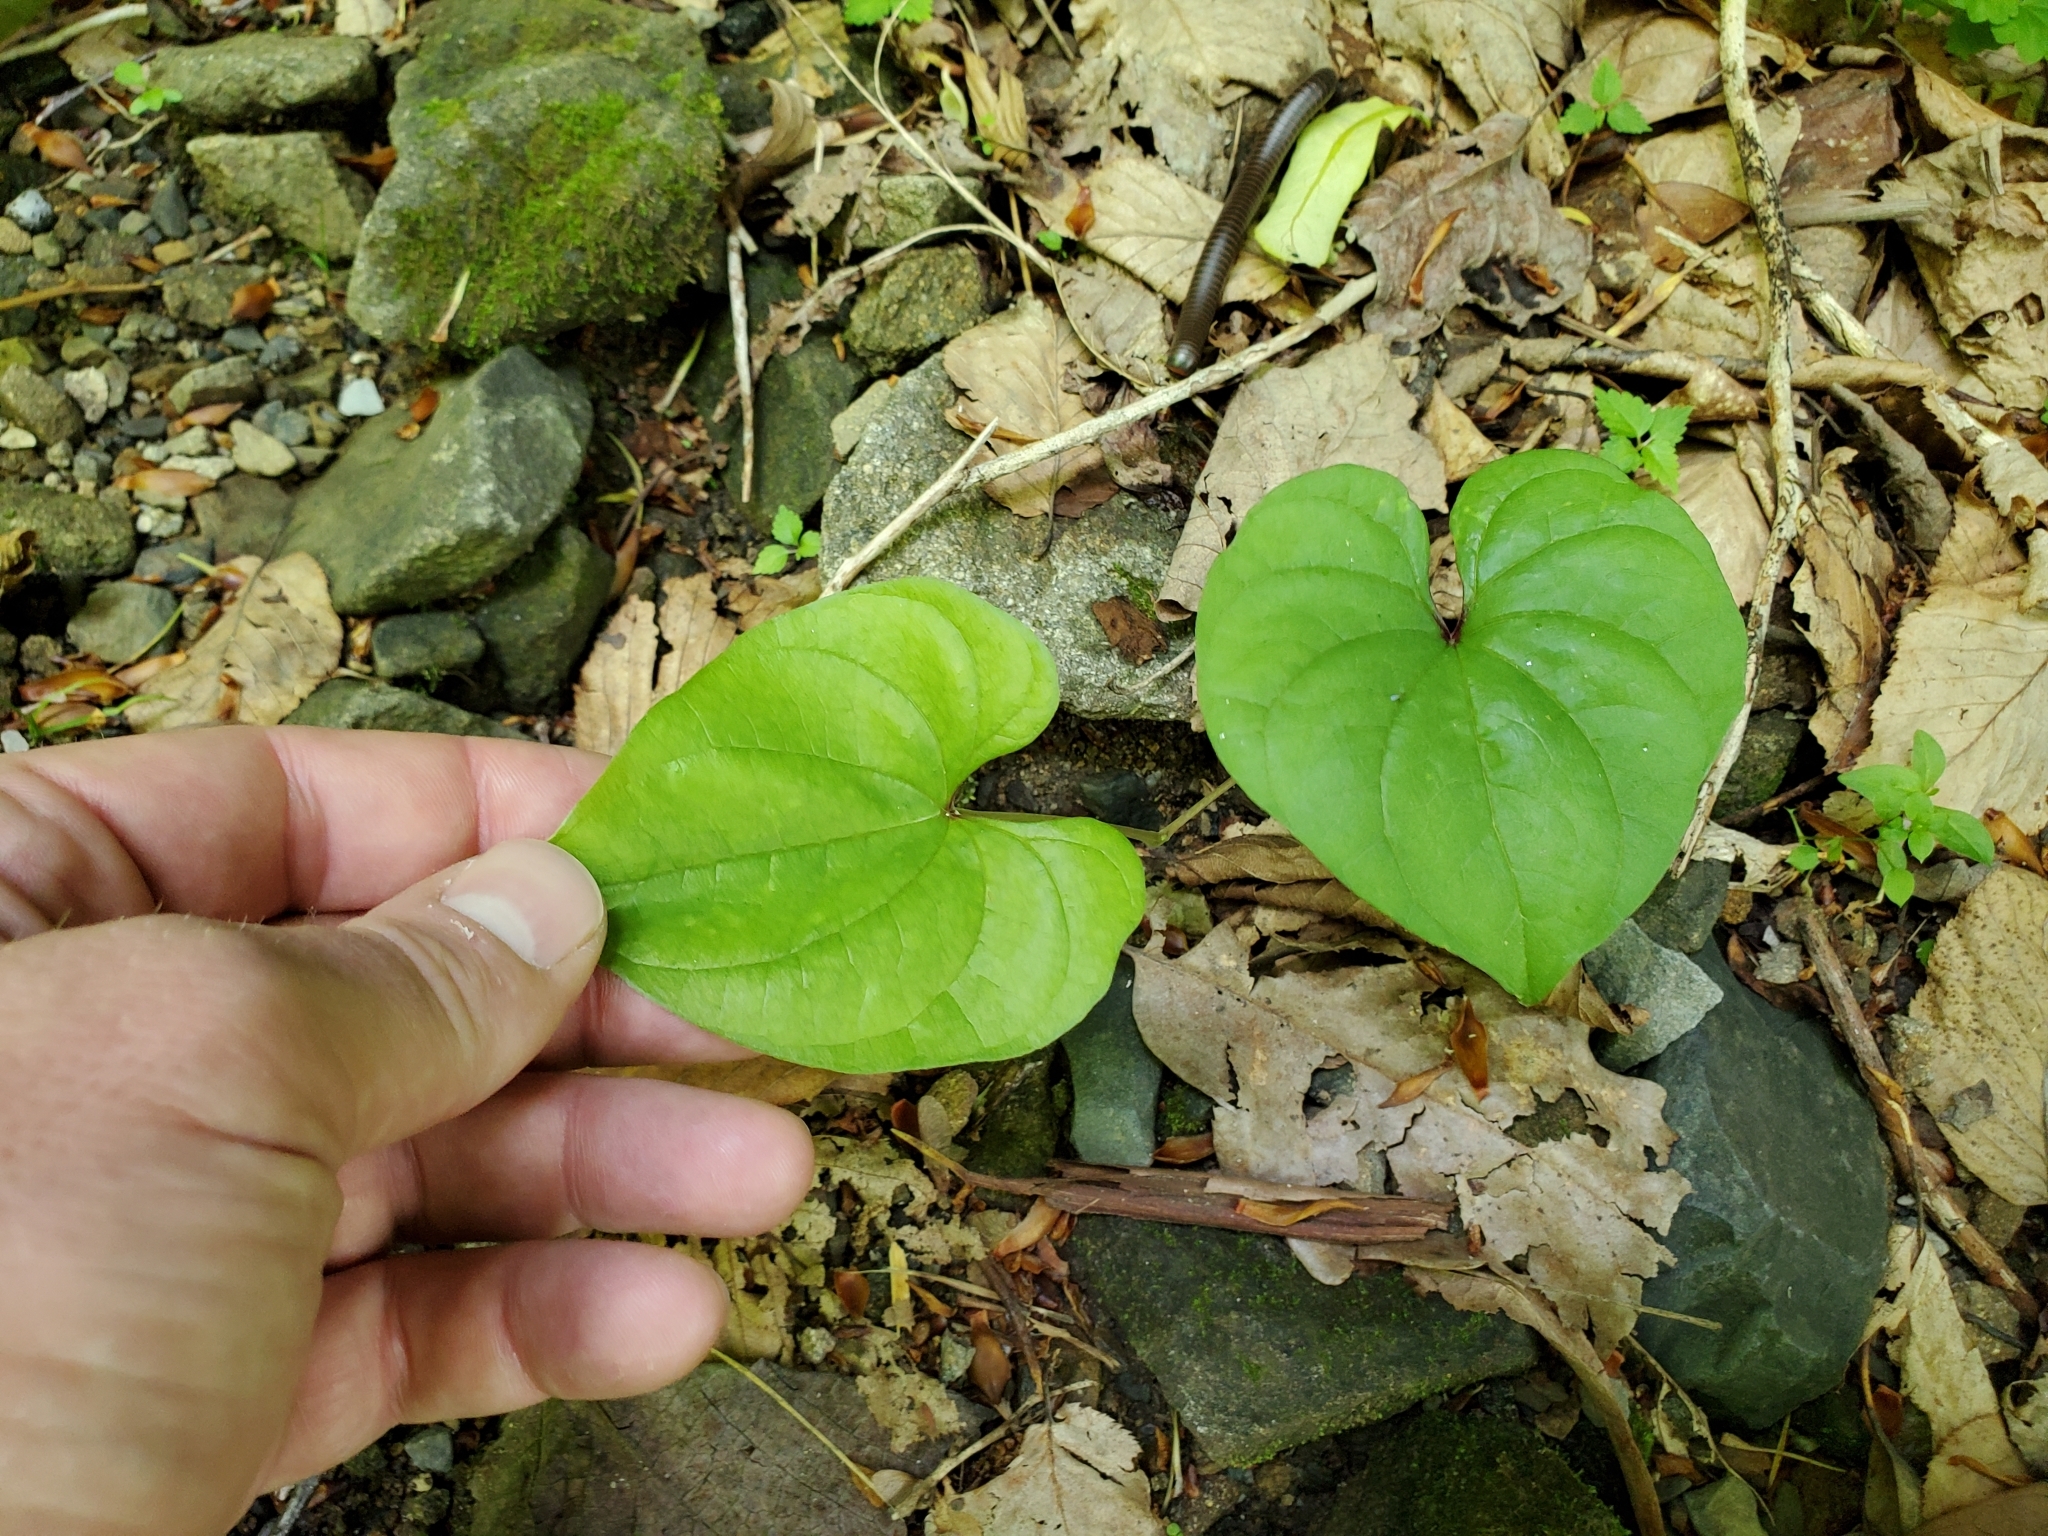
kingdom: Plantae
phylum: Tracheophyta
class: Liliopsida
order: Dioscoreales
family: Dioscoreaceae
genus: Dioscorea
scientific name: Dioscorea polystachya
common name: Chinese yam
